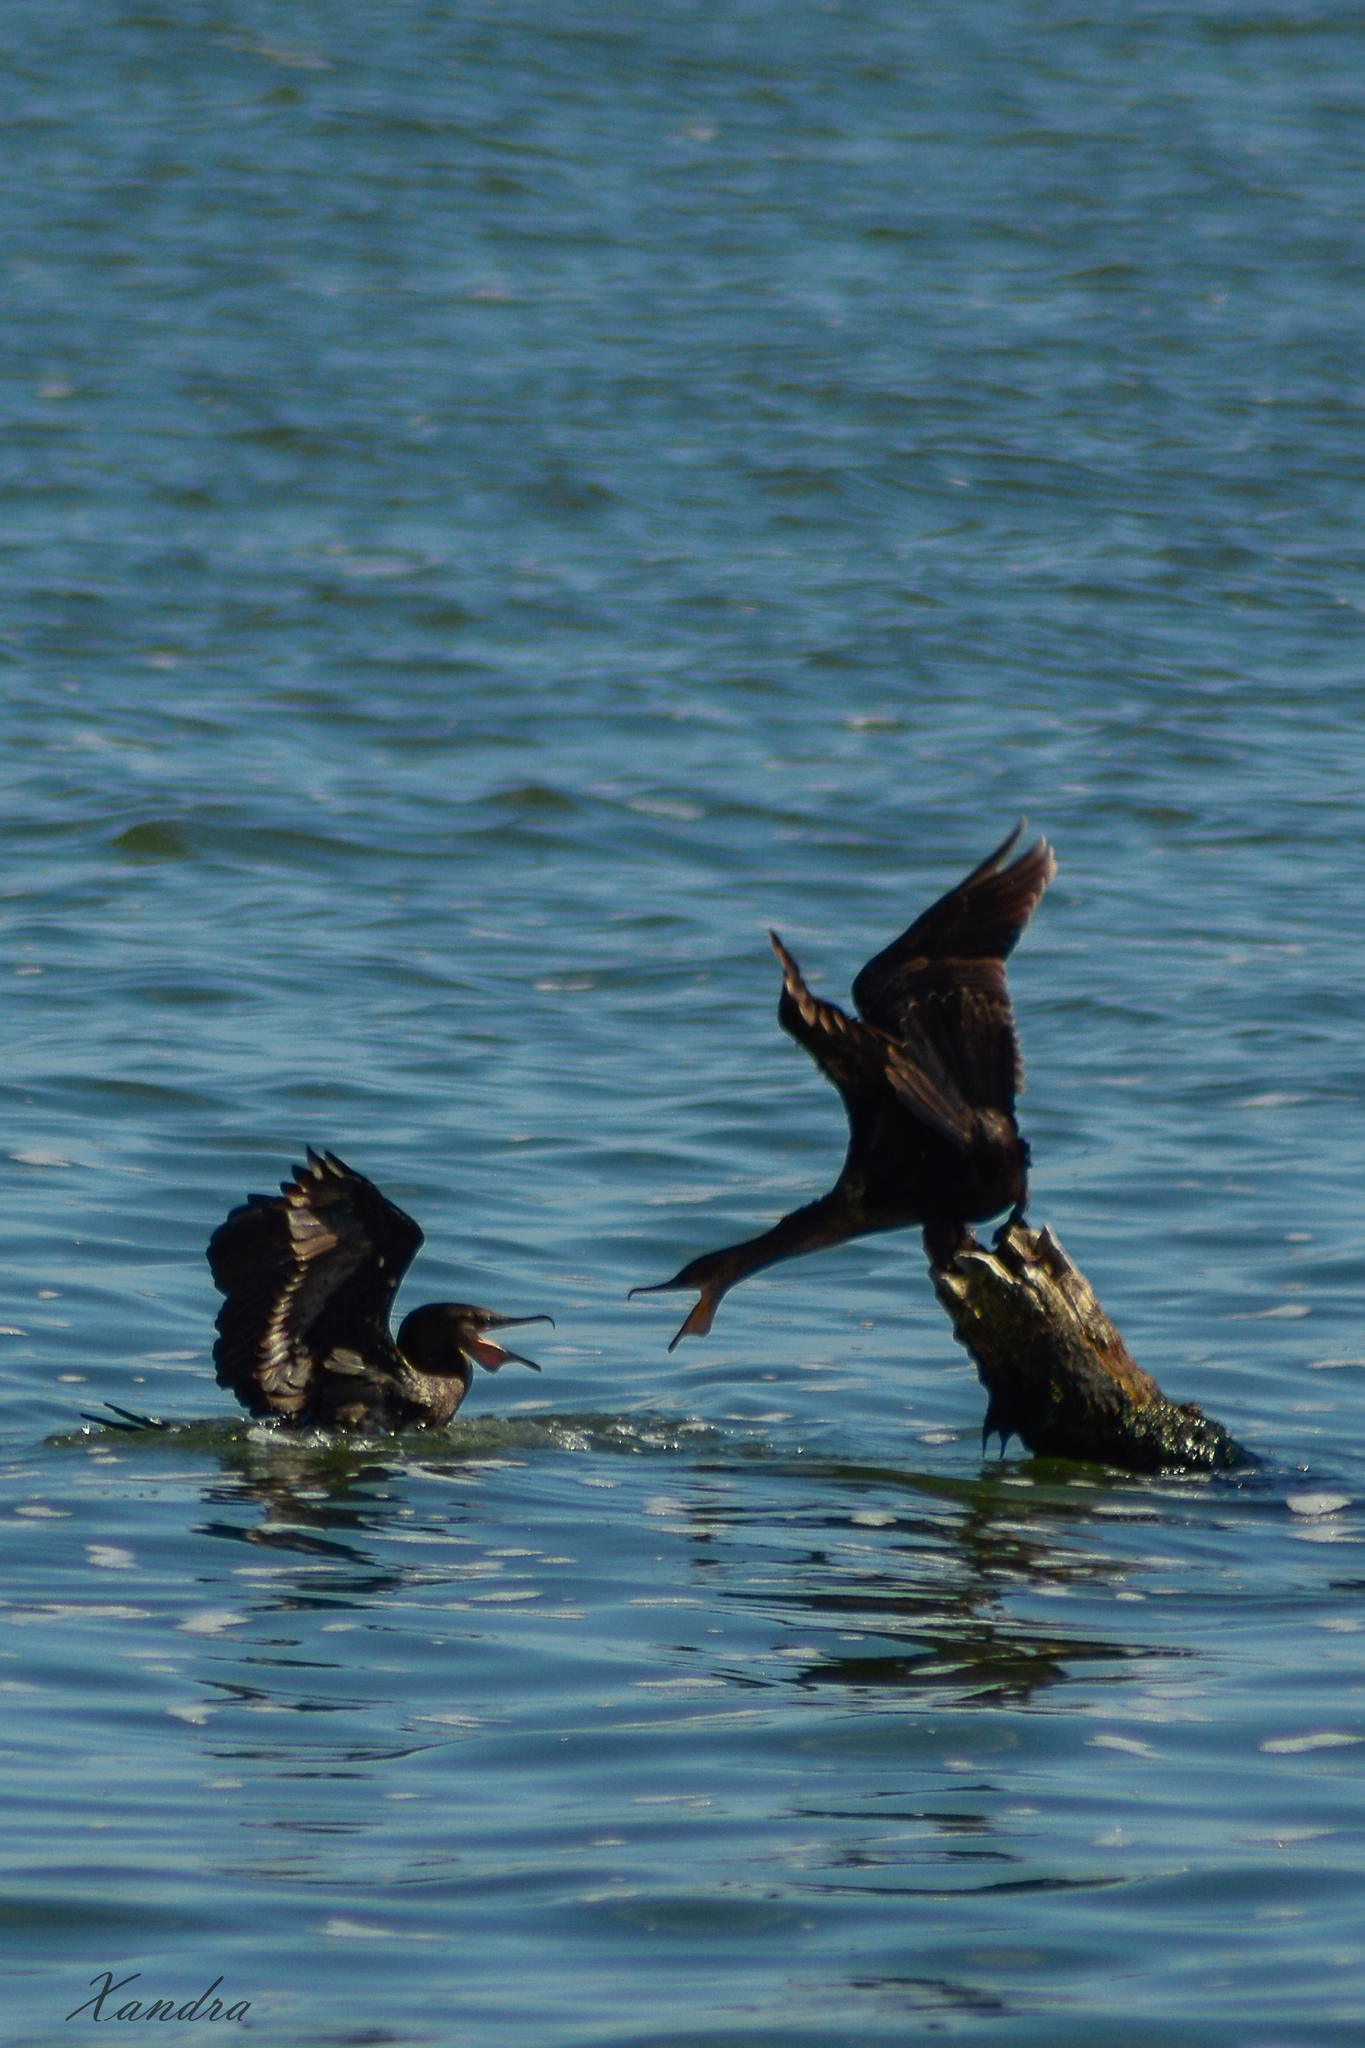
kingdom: Animalia
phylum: Chordata
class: Aves
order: Suliformes
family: Phalacrocoracidae
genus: Phalacrocorax
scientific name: Phalacrocorax brasilianus
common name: Neotropic cormorant
